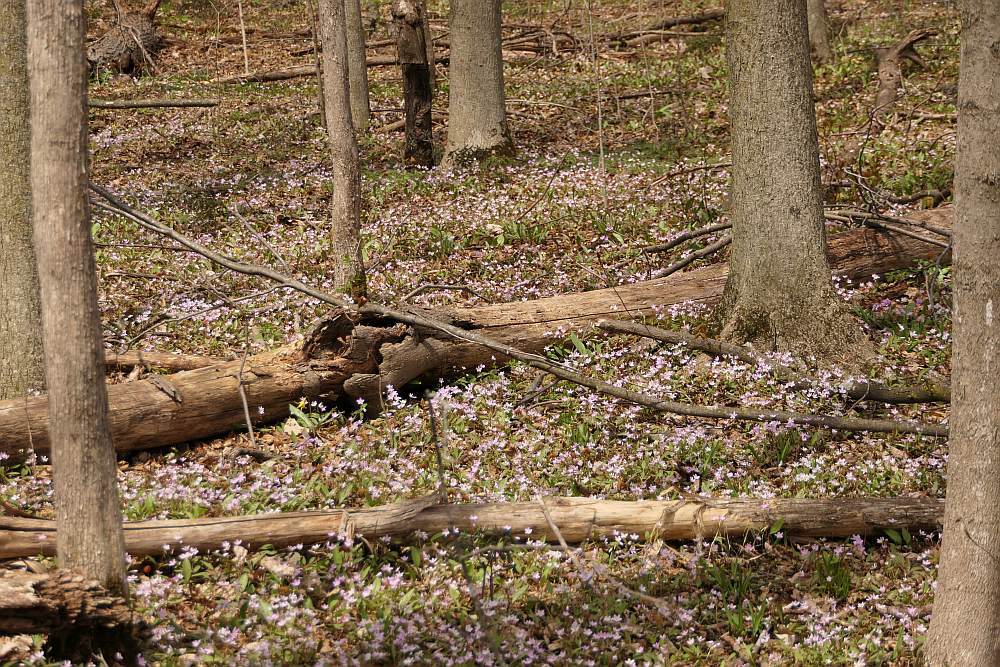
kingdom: Plantae
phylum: Tracheophyta
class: Magnoliopsida
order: Caryophyllales
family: Montiaceae
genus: Claytonia
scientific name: Claytonia caroliniana
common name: Carolina spring beauty
